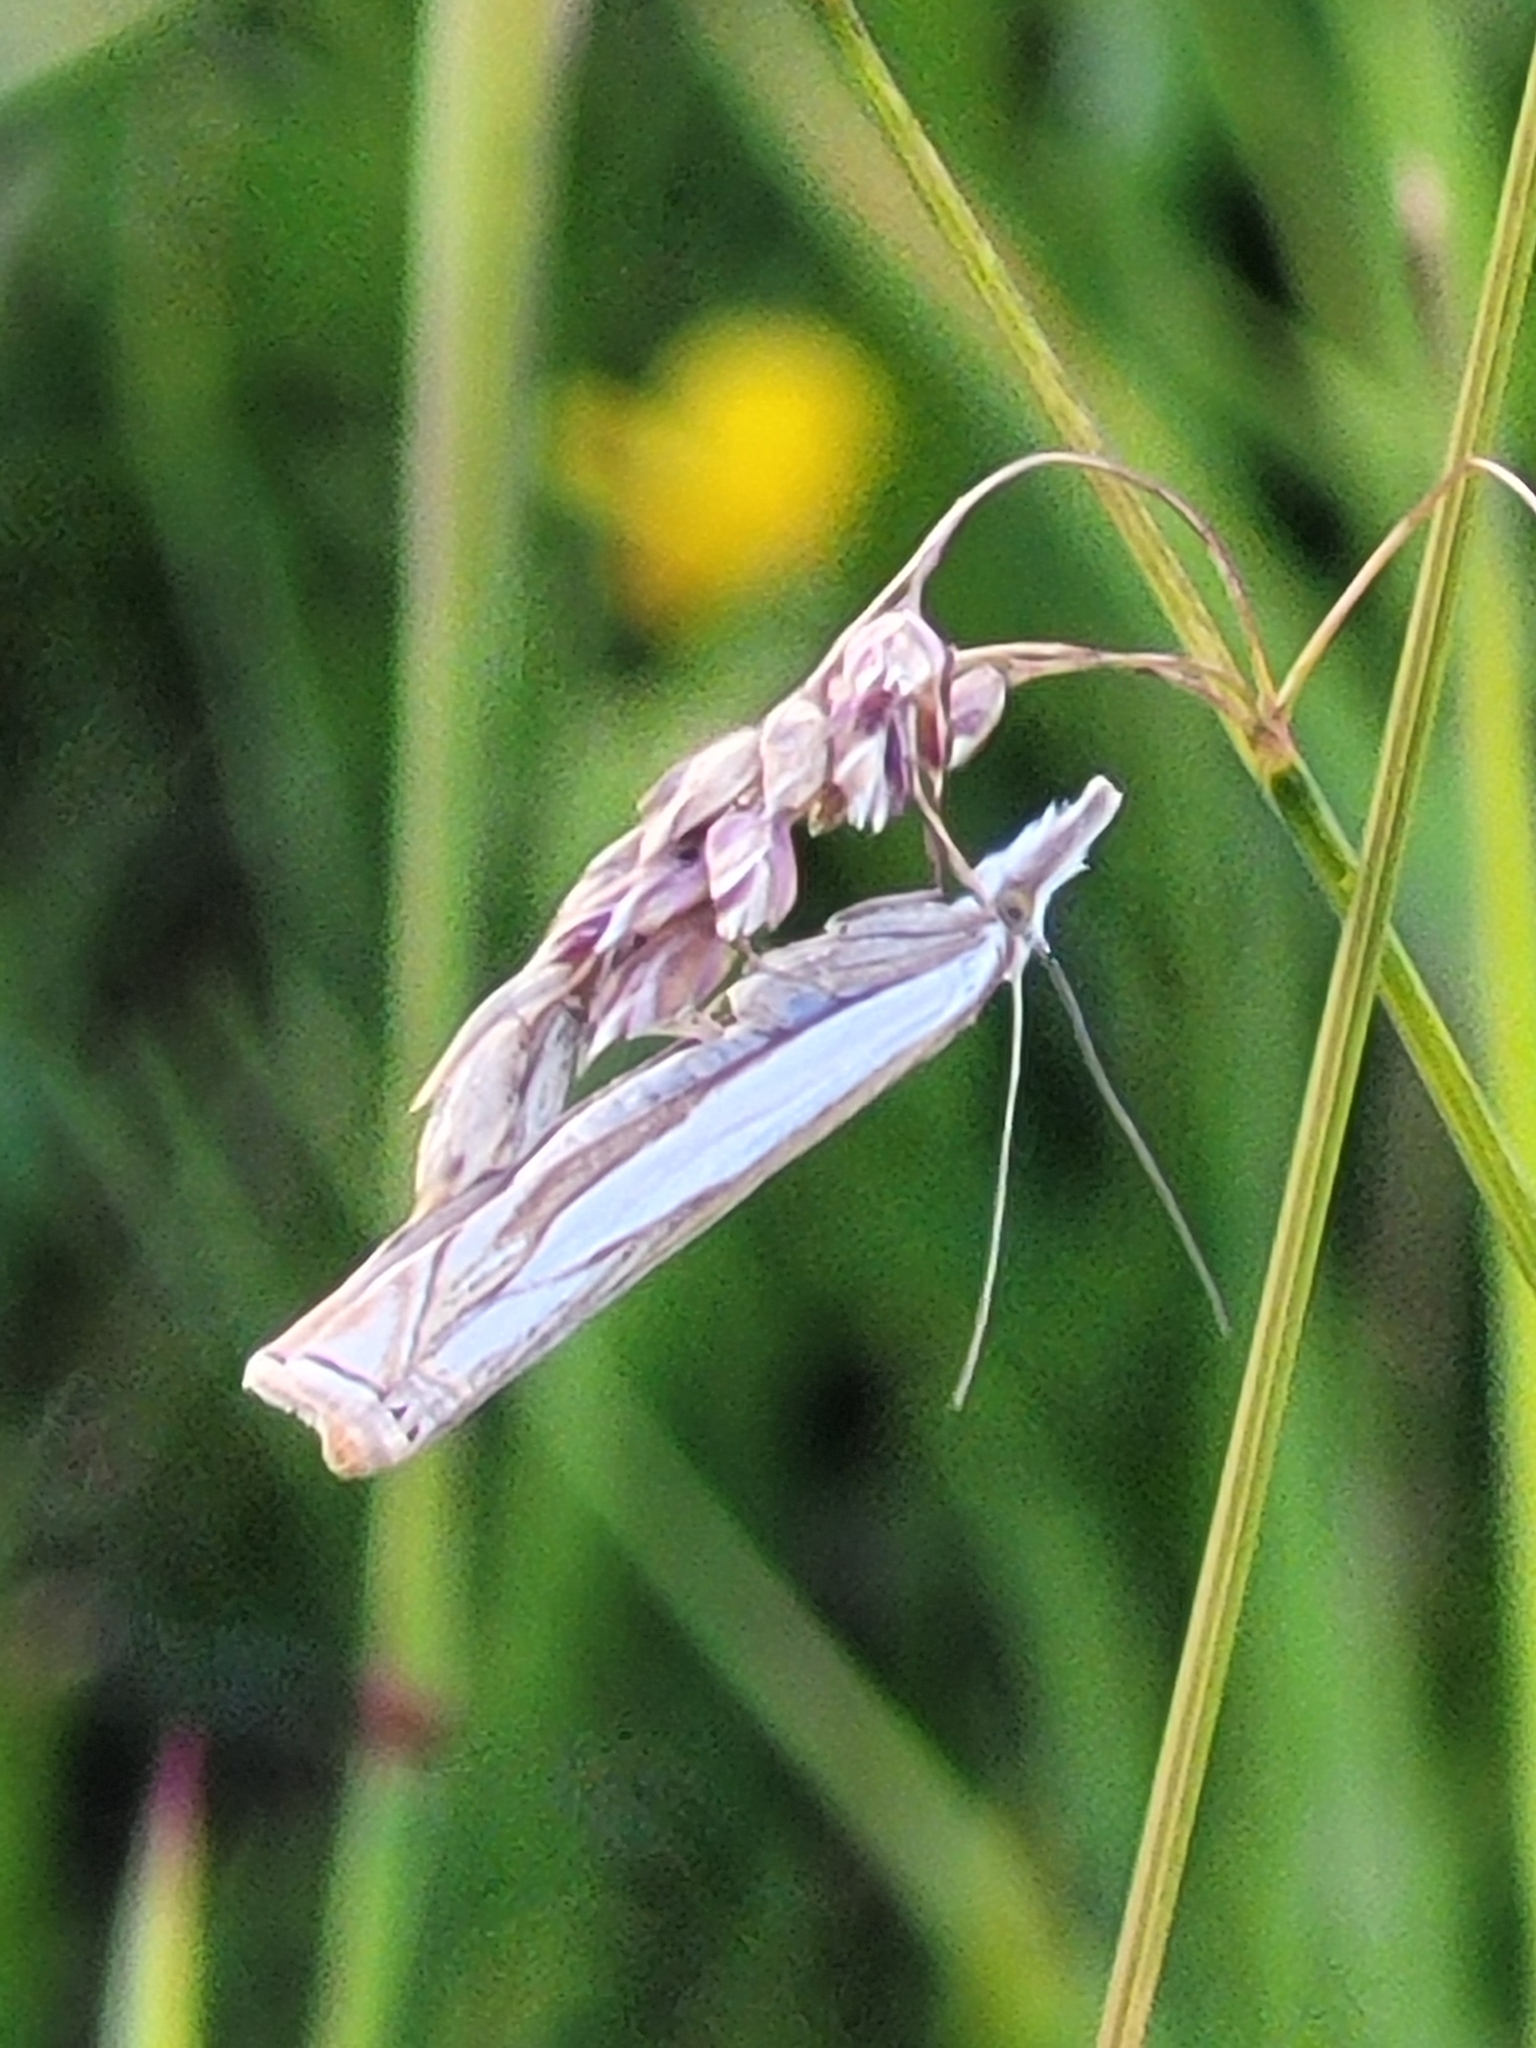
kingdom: Animalia
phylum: Arthropoda
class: Insecta
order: Lepidoptera
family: Crambidae
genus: Crambus
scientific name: Crambus pascuella
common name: Inlaid grass-veneer
